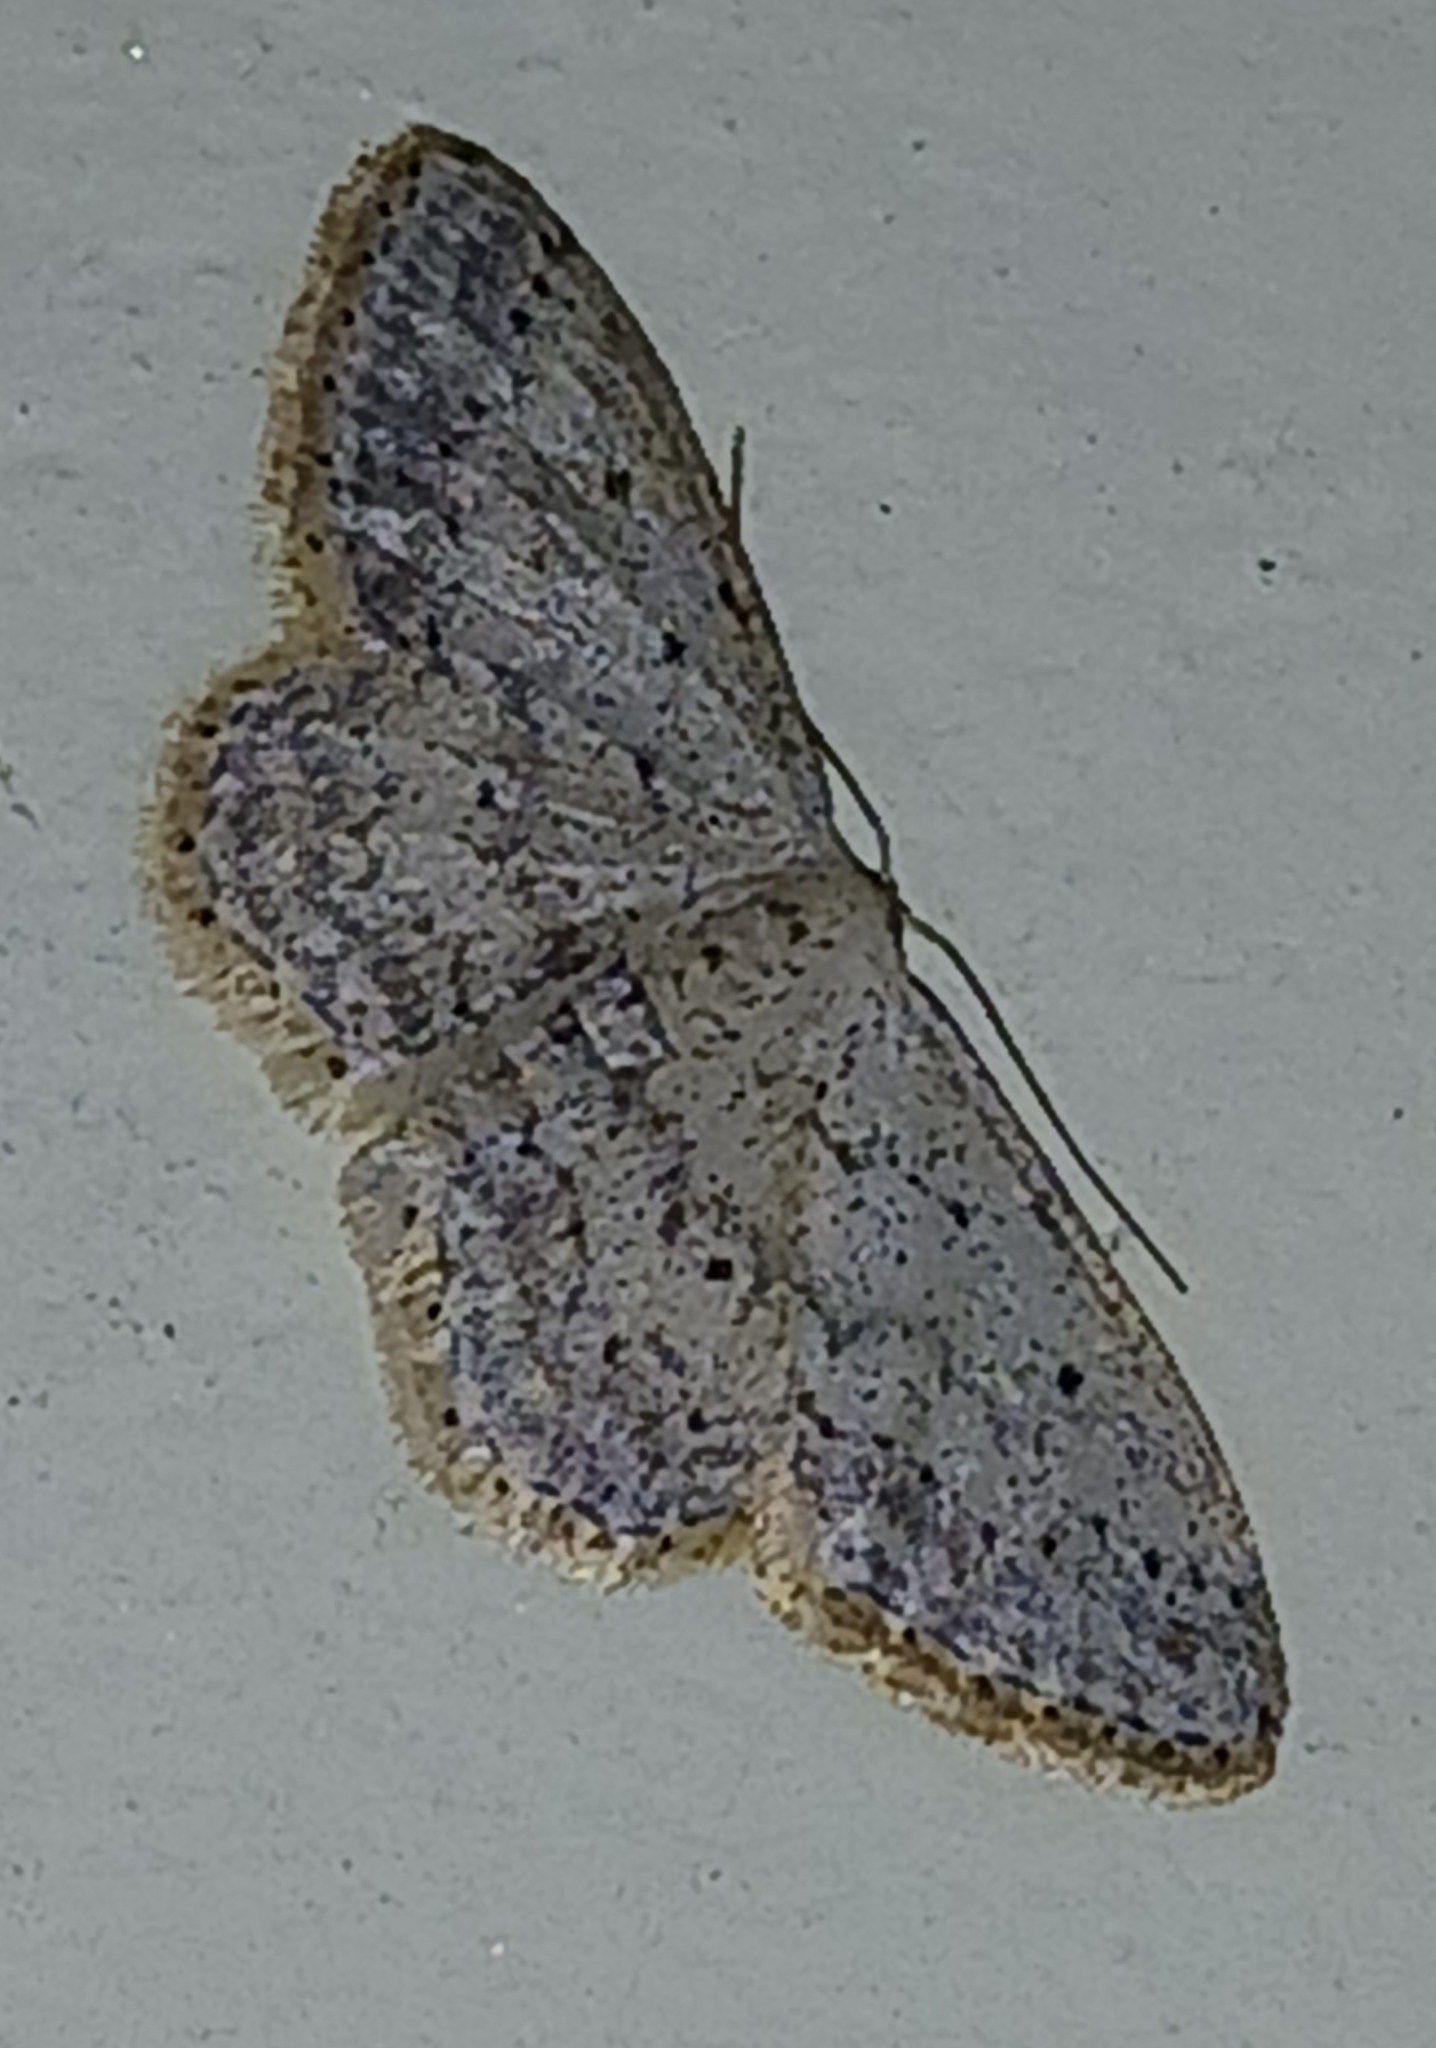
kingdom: Animalia
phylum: Arthropoda
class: Insecta
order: Lepidoptera
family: Geometridae
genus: Idaea
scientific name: Idaea seriata
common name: Small dusty wave
